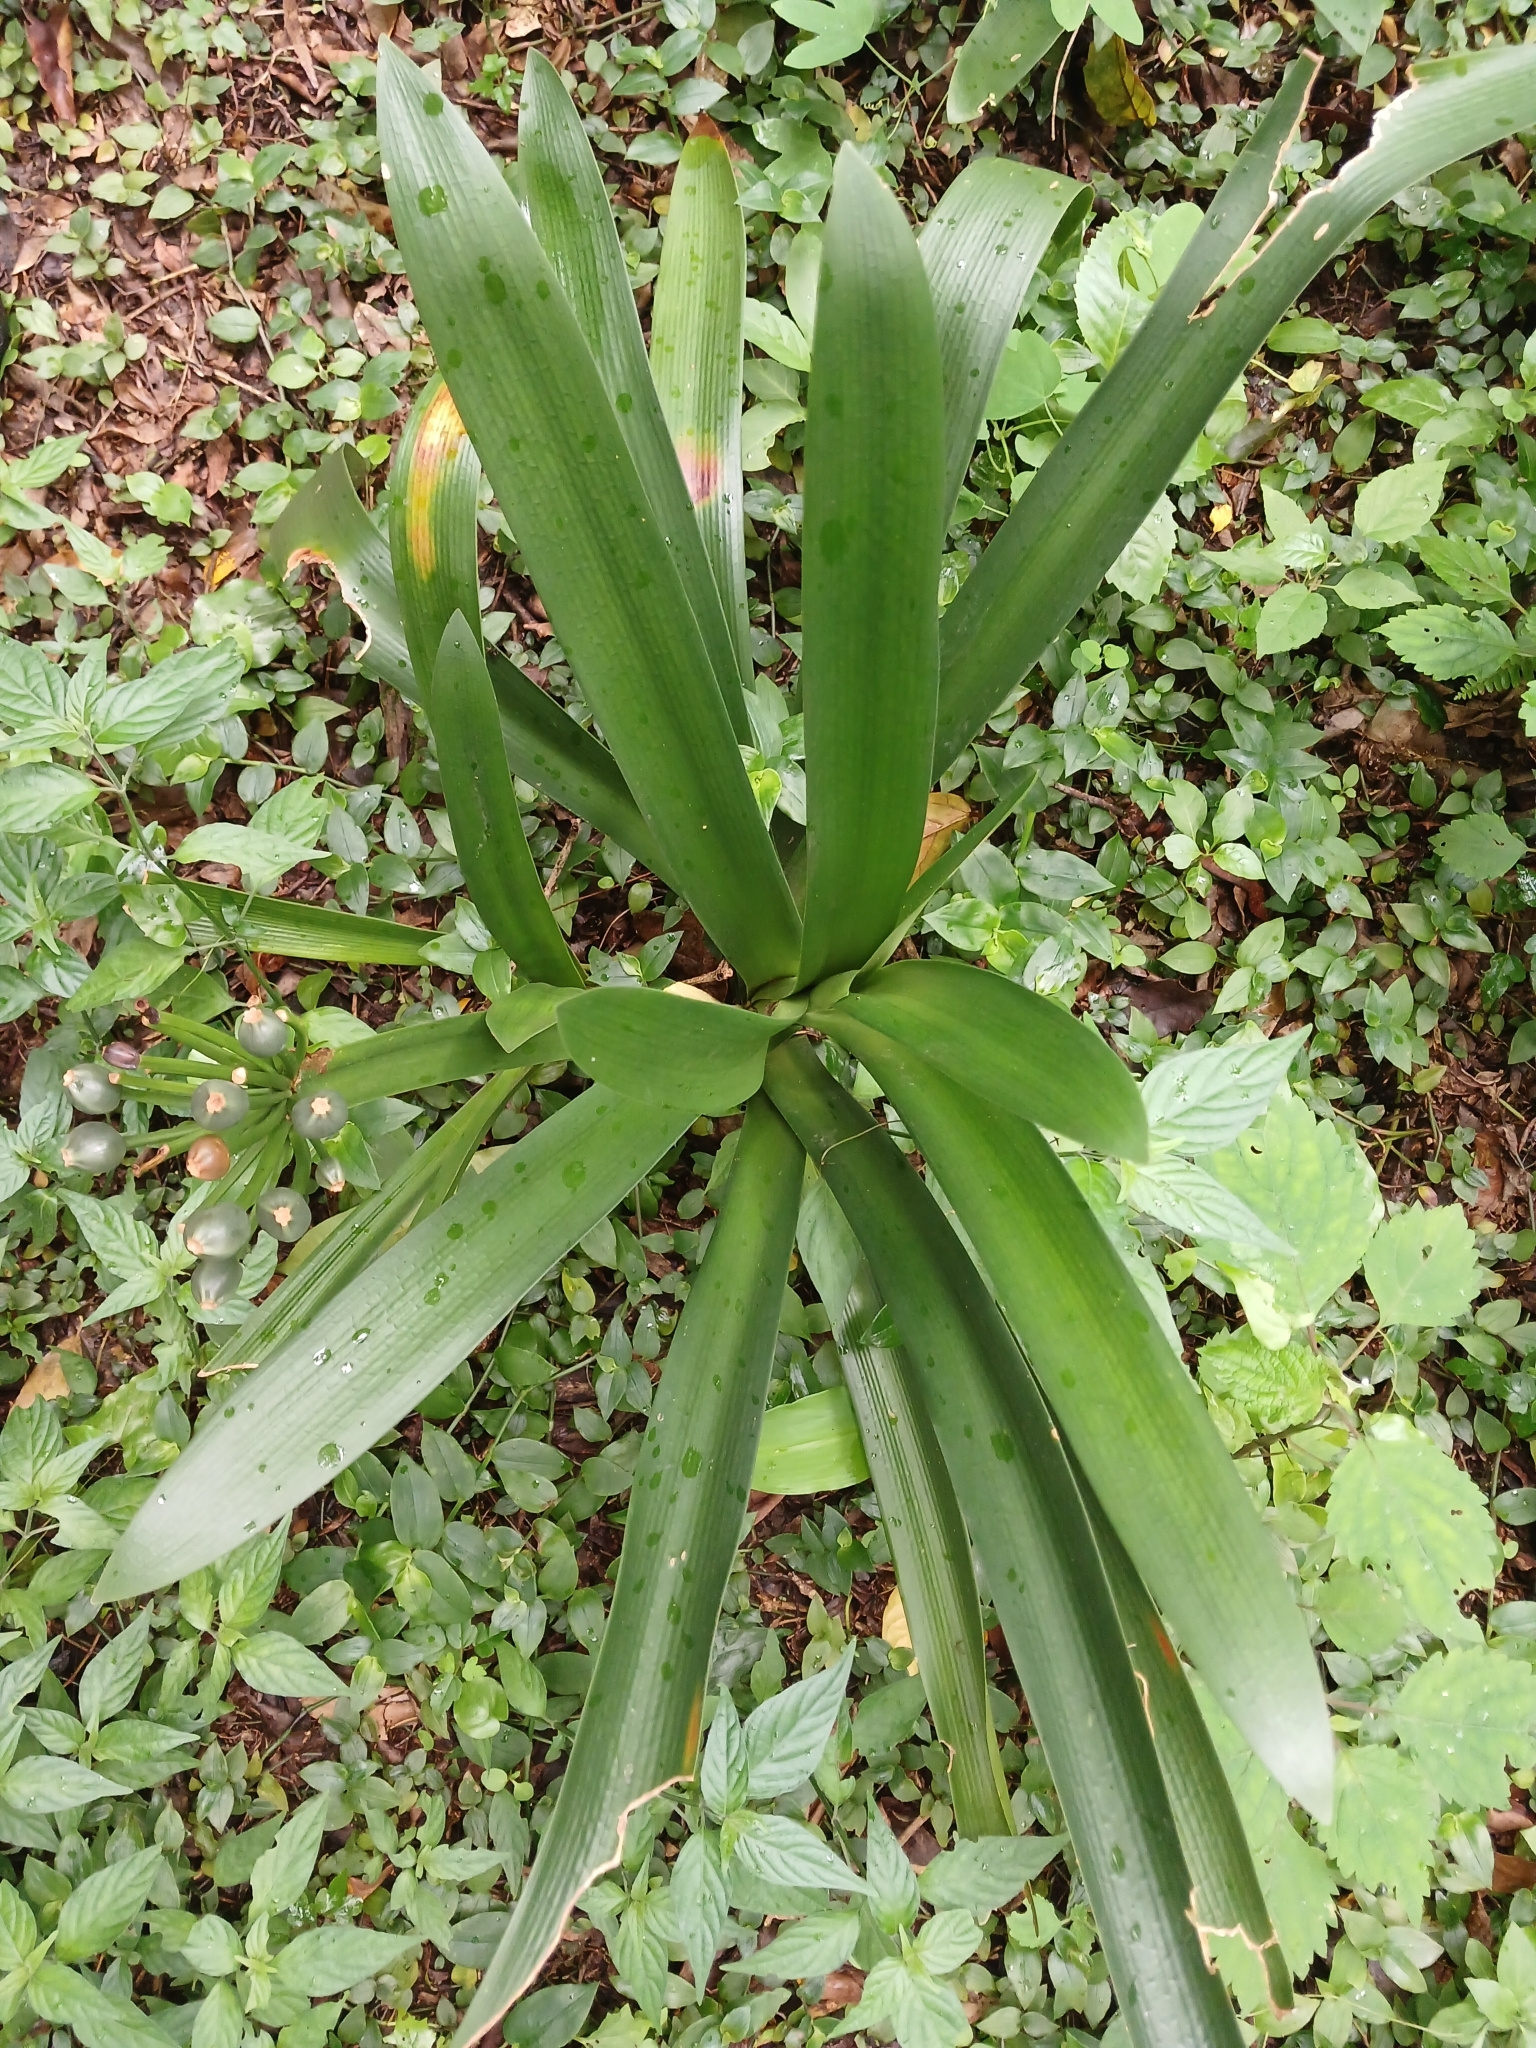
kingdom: Plantae
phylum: Tracheophyta
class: Liliopsida
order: Asparagales
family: Amaryllidaceae
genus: Clivia
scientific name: Clivia miniata
